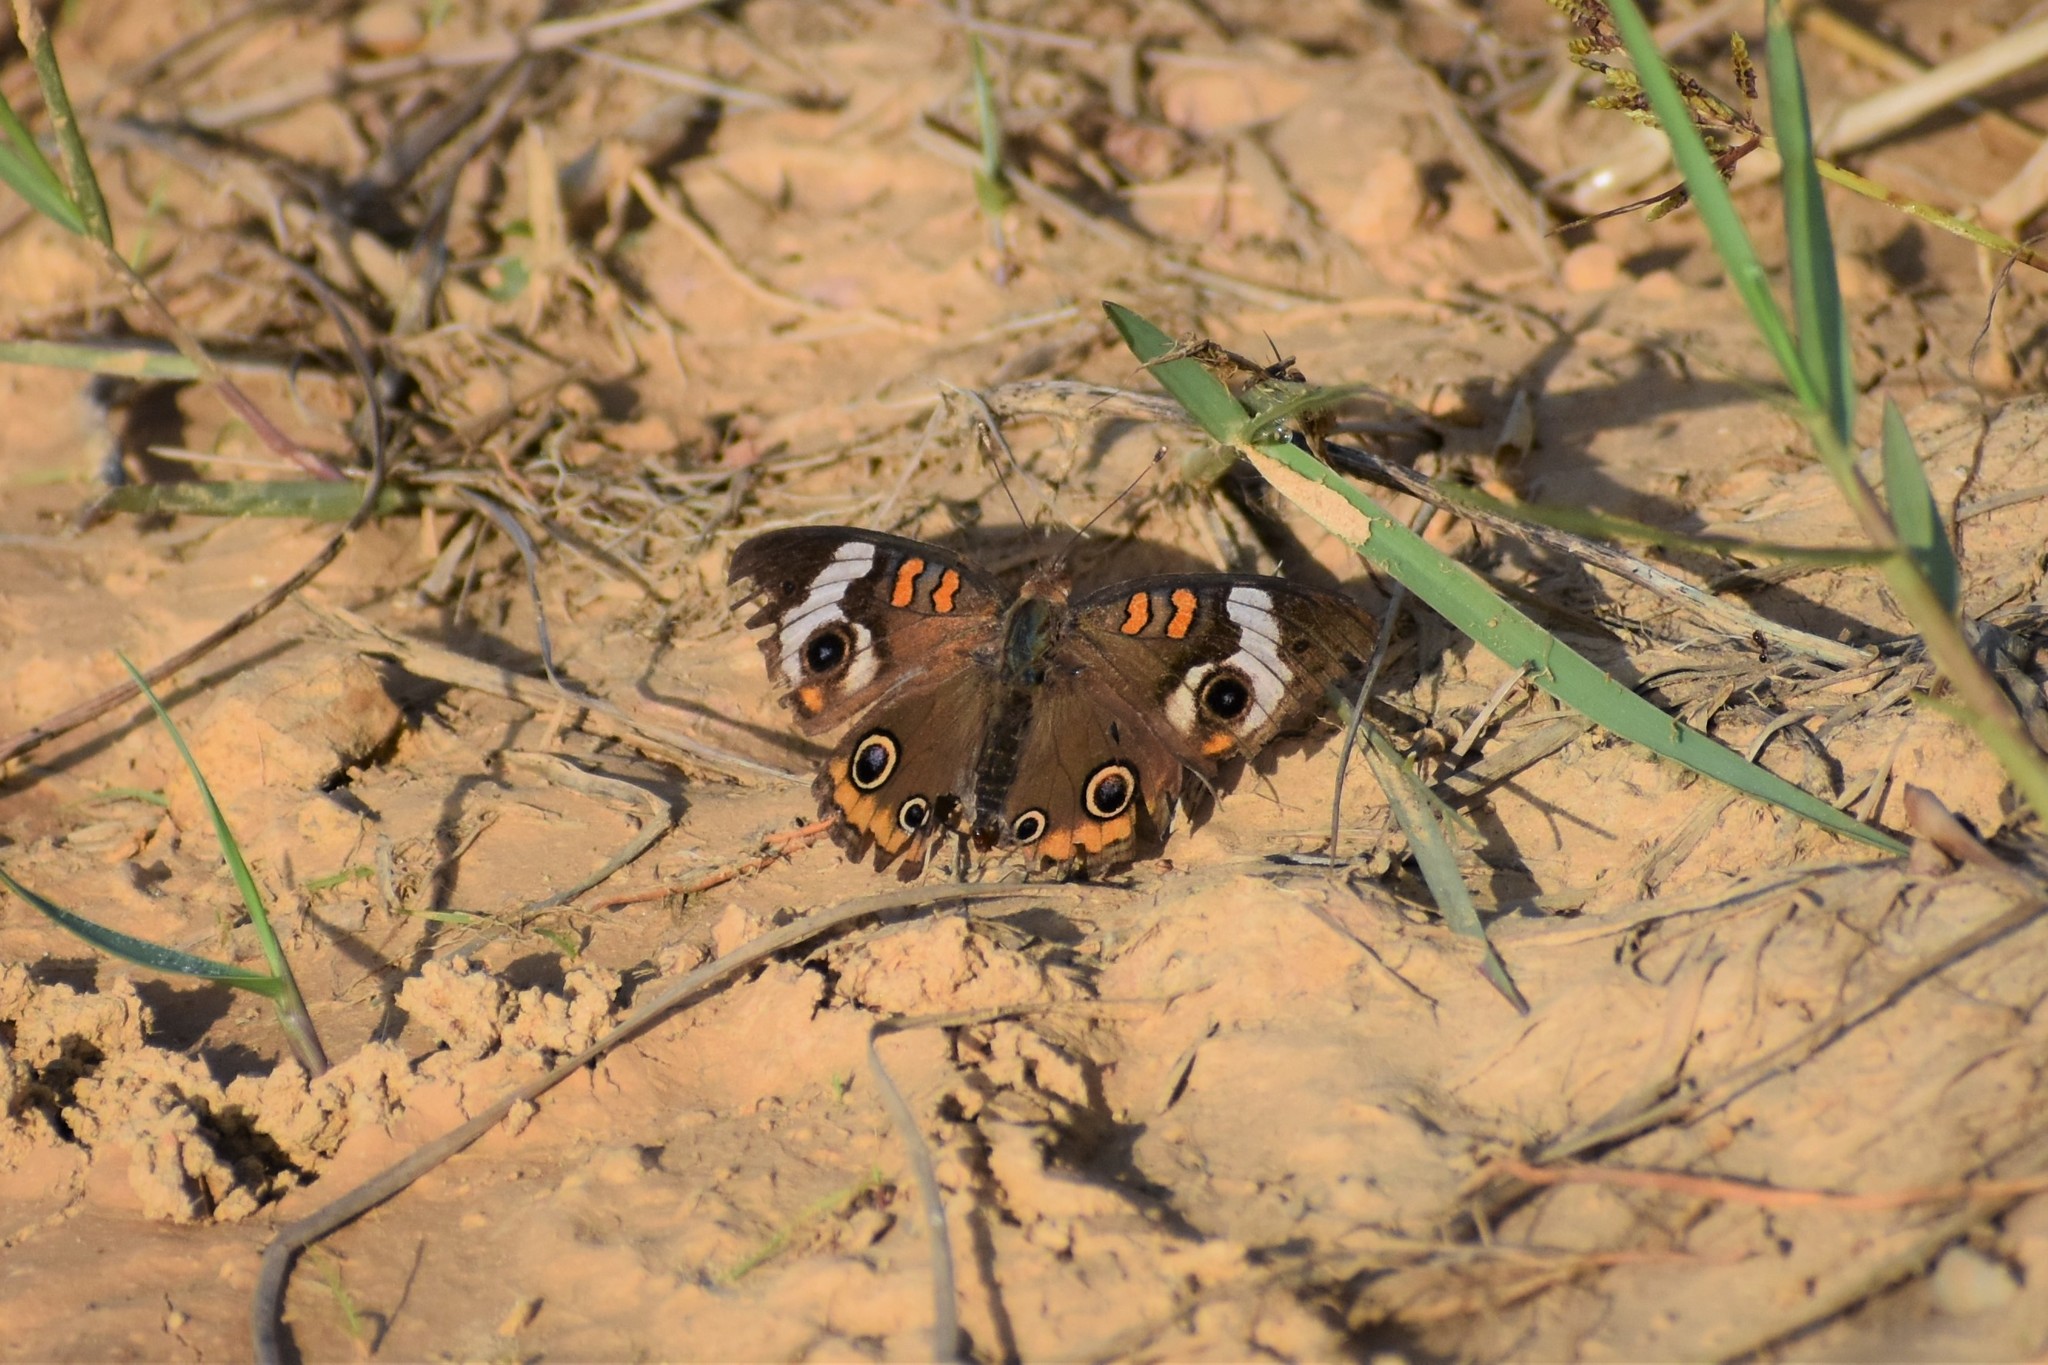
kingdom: Animalia
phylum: Arthropoda
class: Insecta
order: Lepidoptera
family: Nymphalidae
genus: Junonia
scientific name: Junonia coenia
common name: Common buckeye
